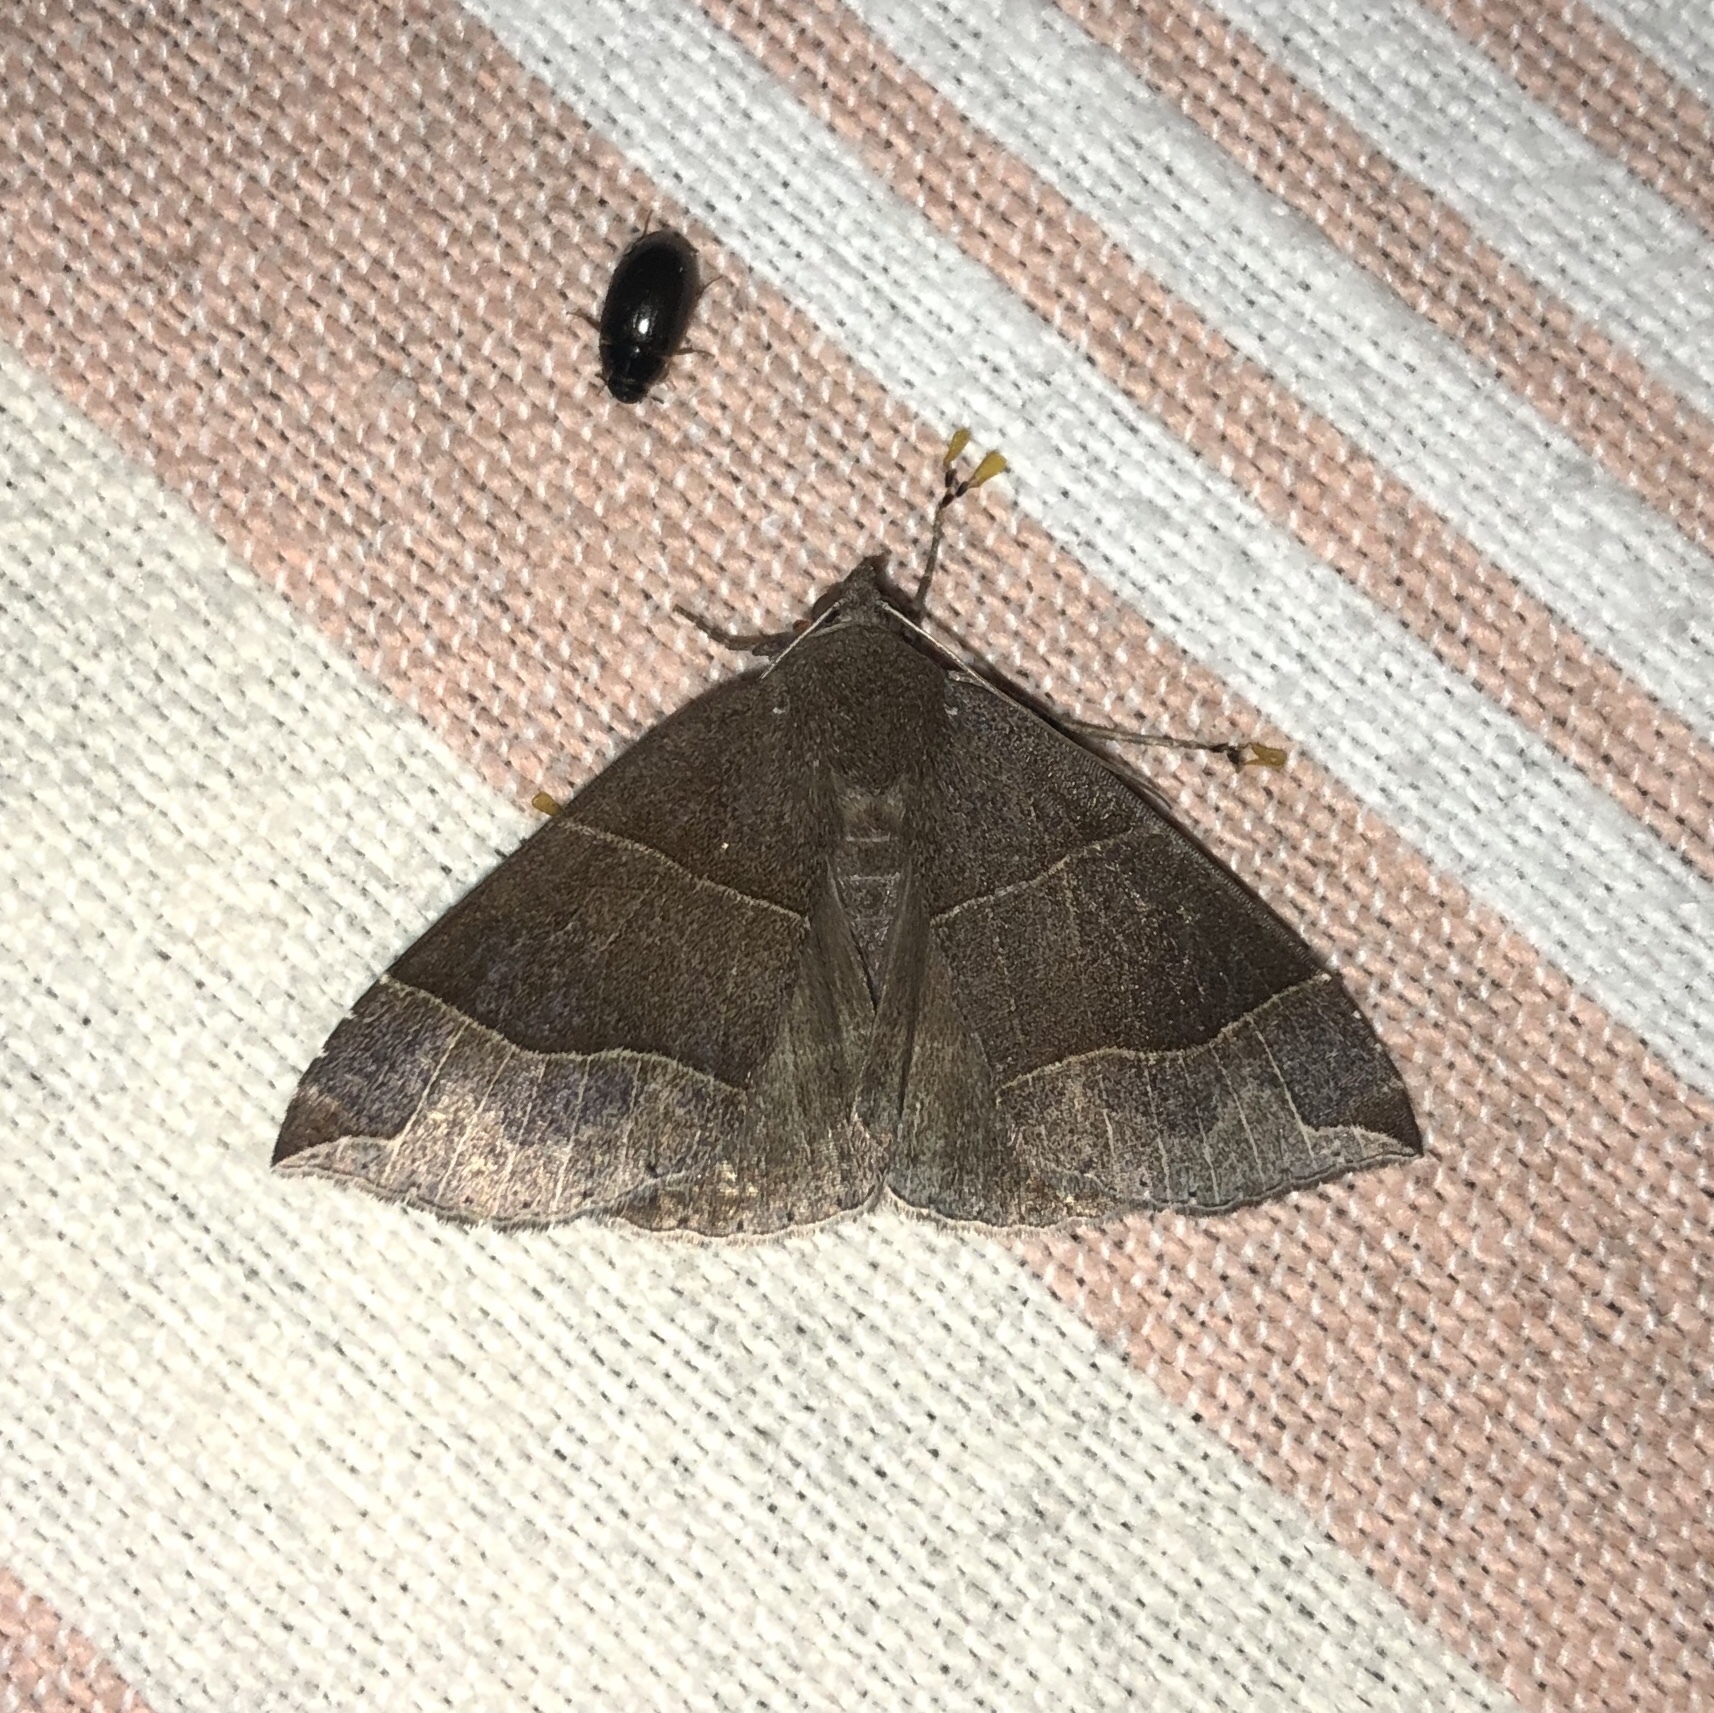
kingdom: Animalia
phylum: Arthropoda
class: Insecta
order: Lepidoptera
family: Erebidae
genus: Parallelia
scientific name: Parallelia bistriaris
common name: Maple looper moth
